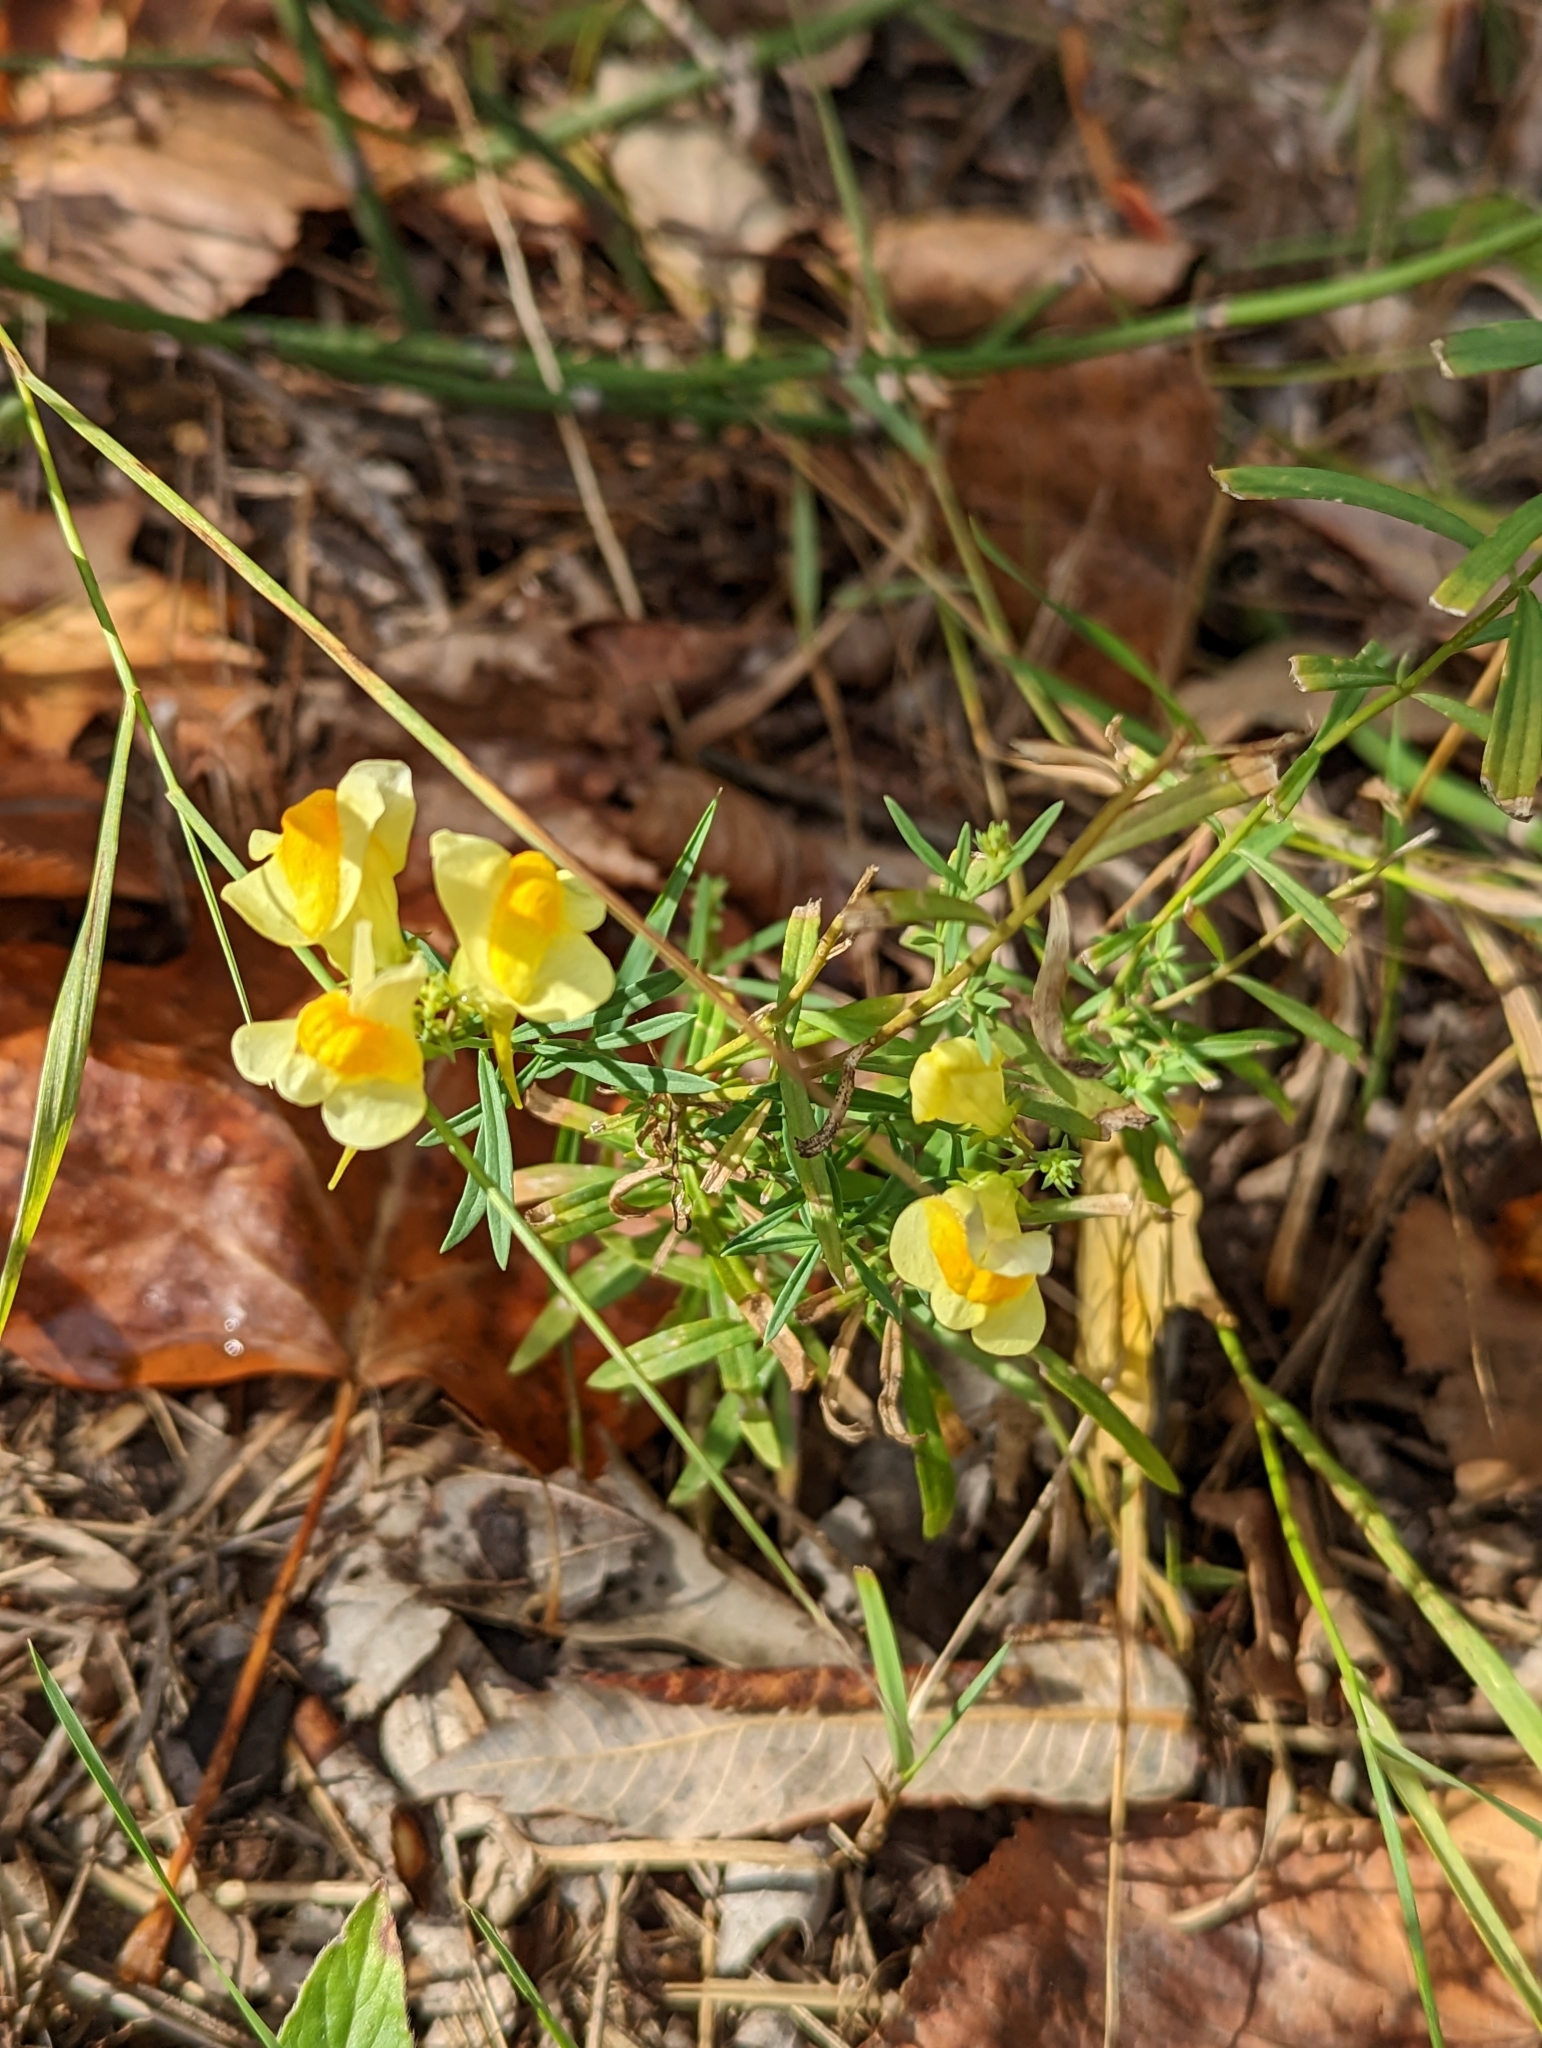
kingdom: Plantae
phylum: Tracheophyta
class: Magnoliopsida
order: Lamiales
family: Plantaginaceae
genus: Linaria
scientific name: Linaria vulgaris
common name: Butter and eggs
